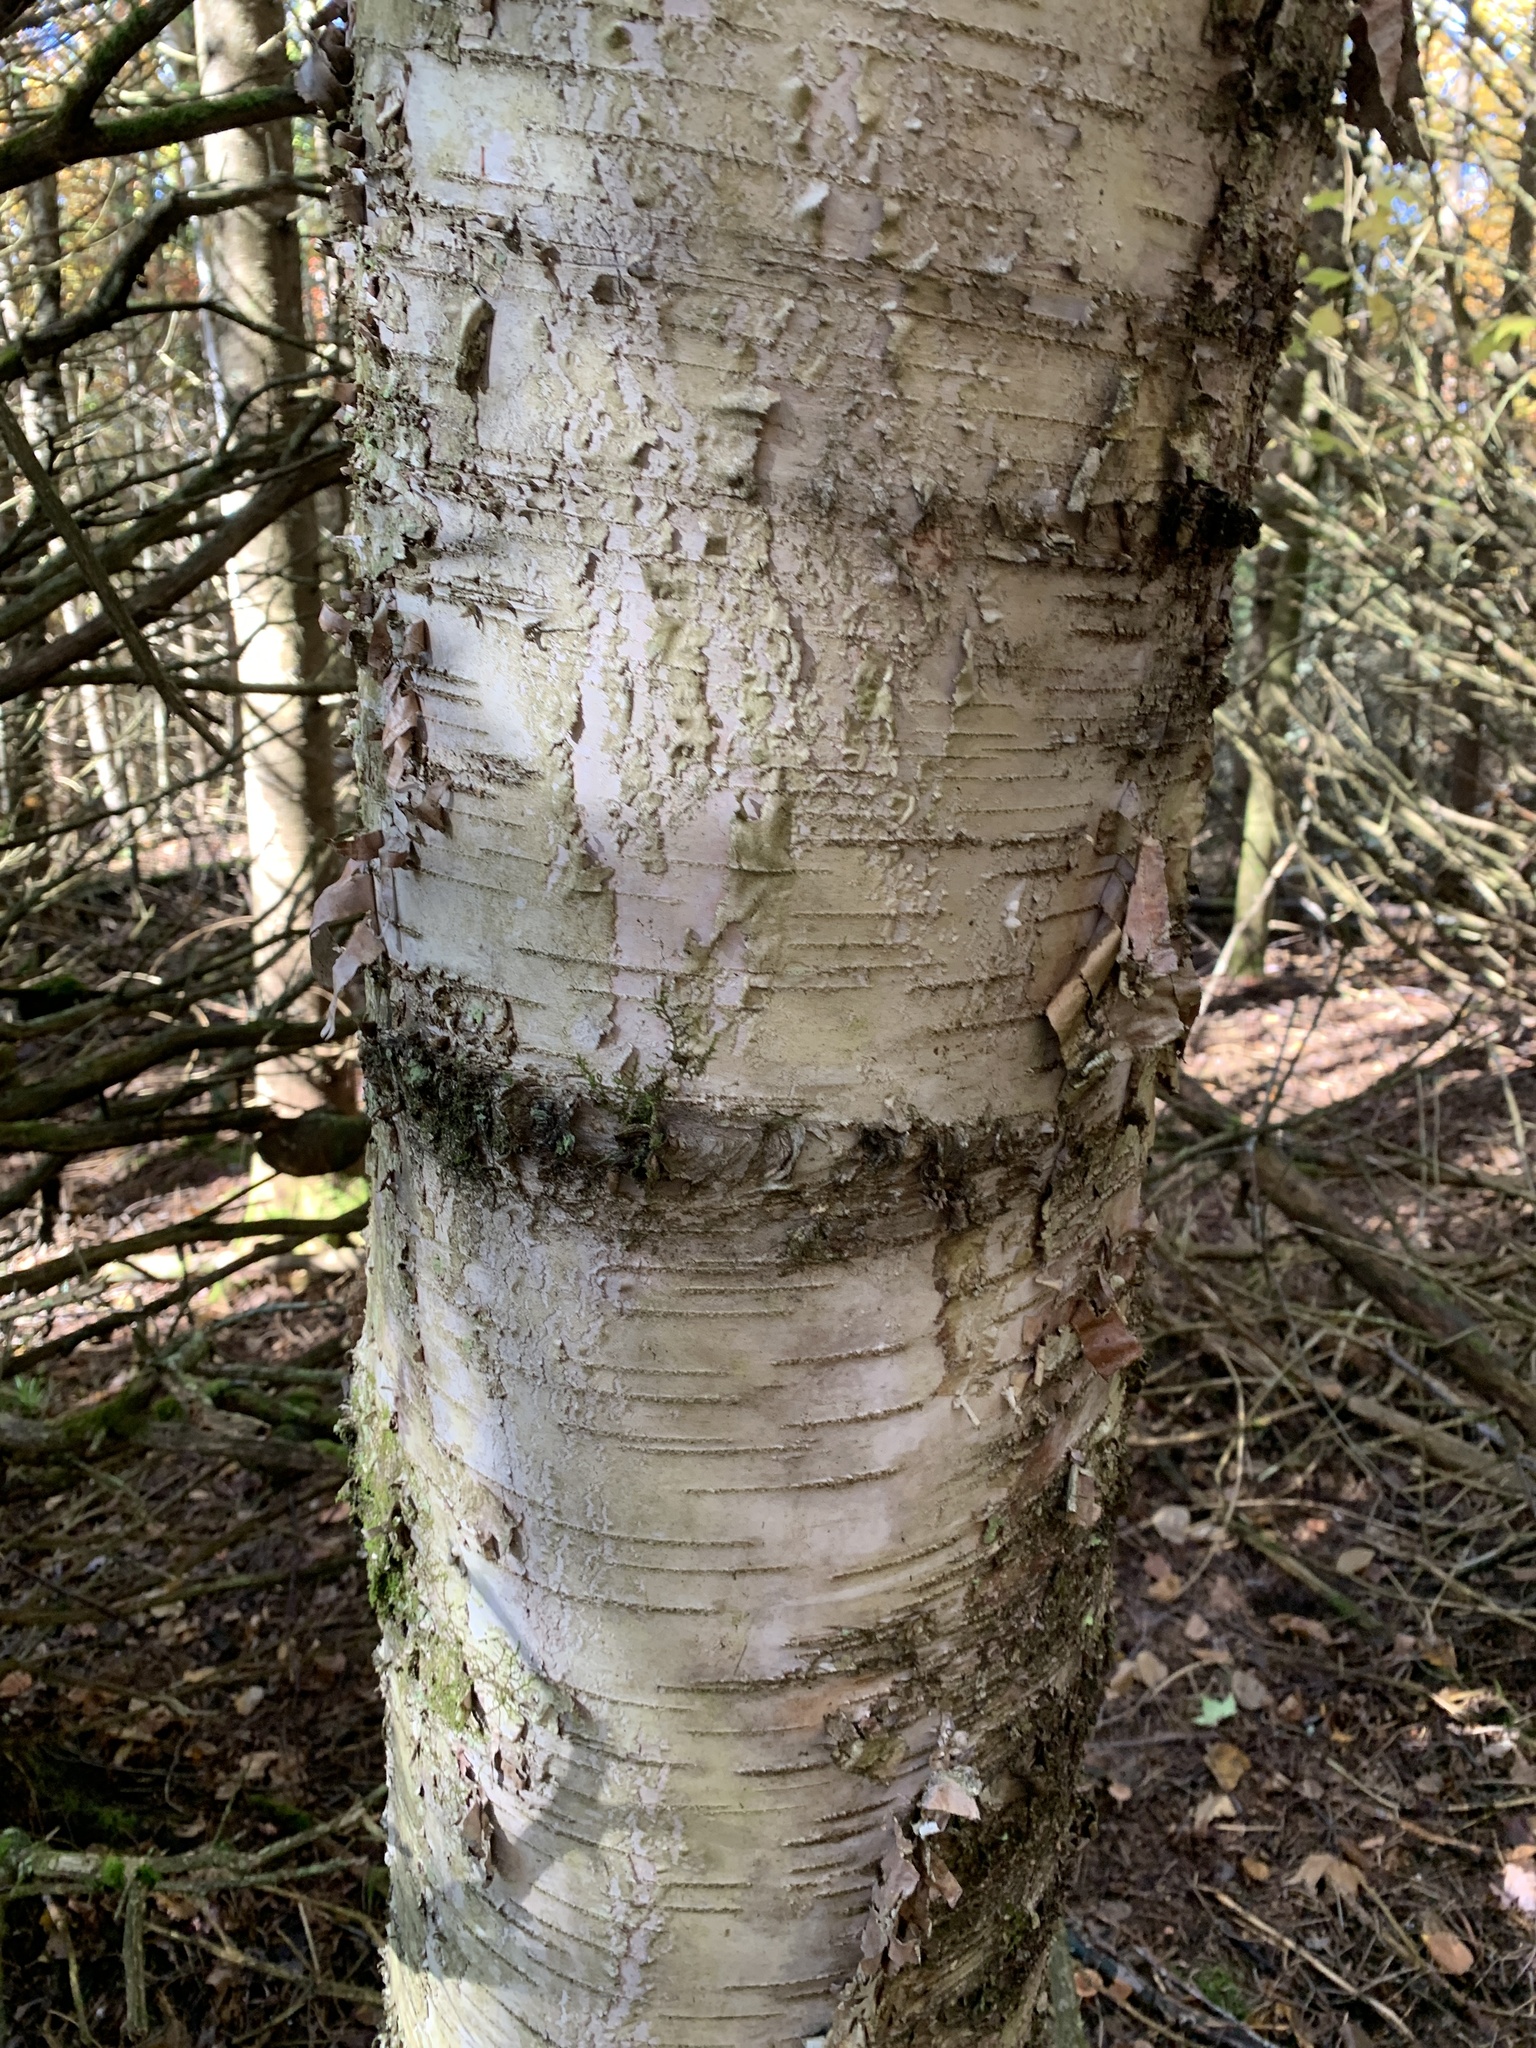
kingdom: Plantae
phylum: Tracheophyta
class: Magnoliopsida
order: Fagales
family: Betulaceae
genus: Betula
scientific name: Betula papyrifera
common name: Paper birch
